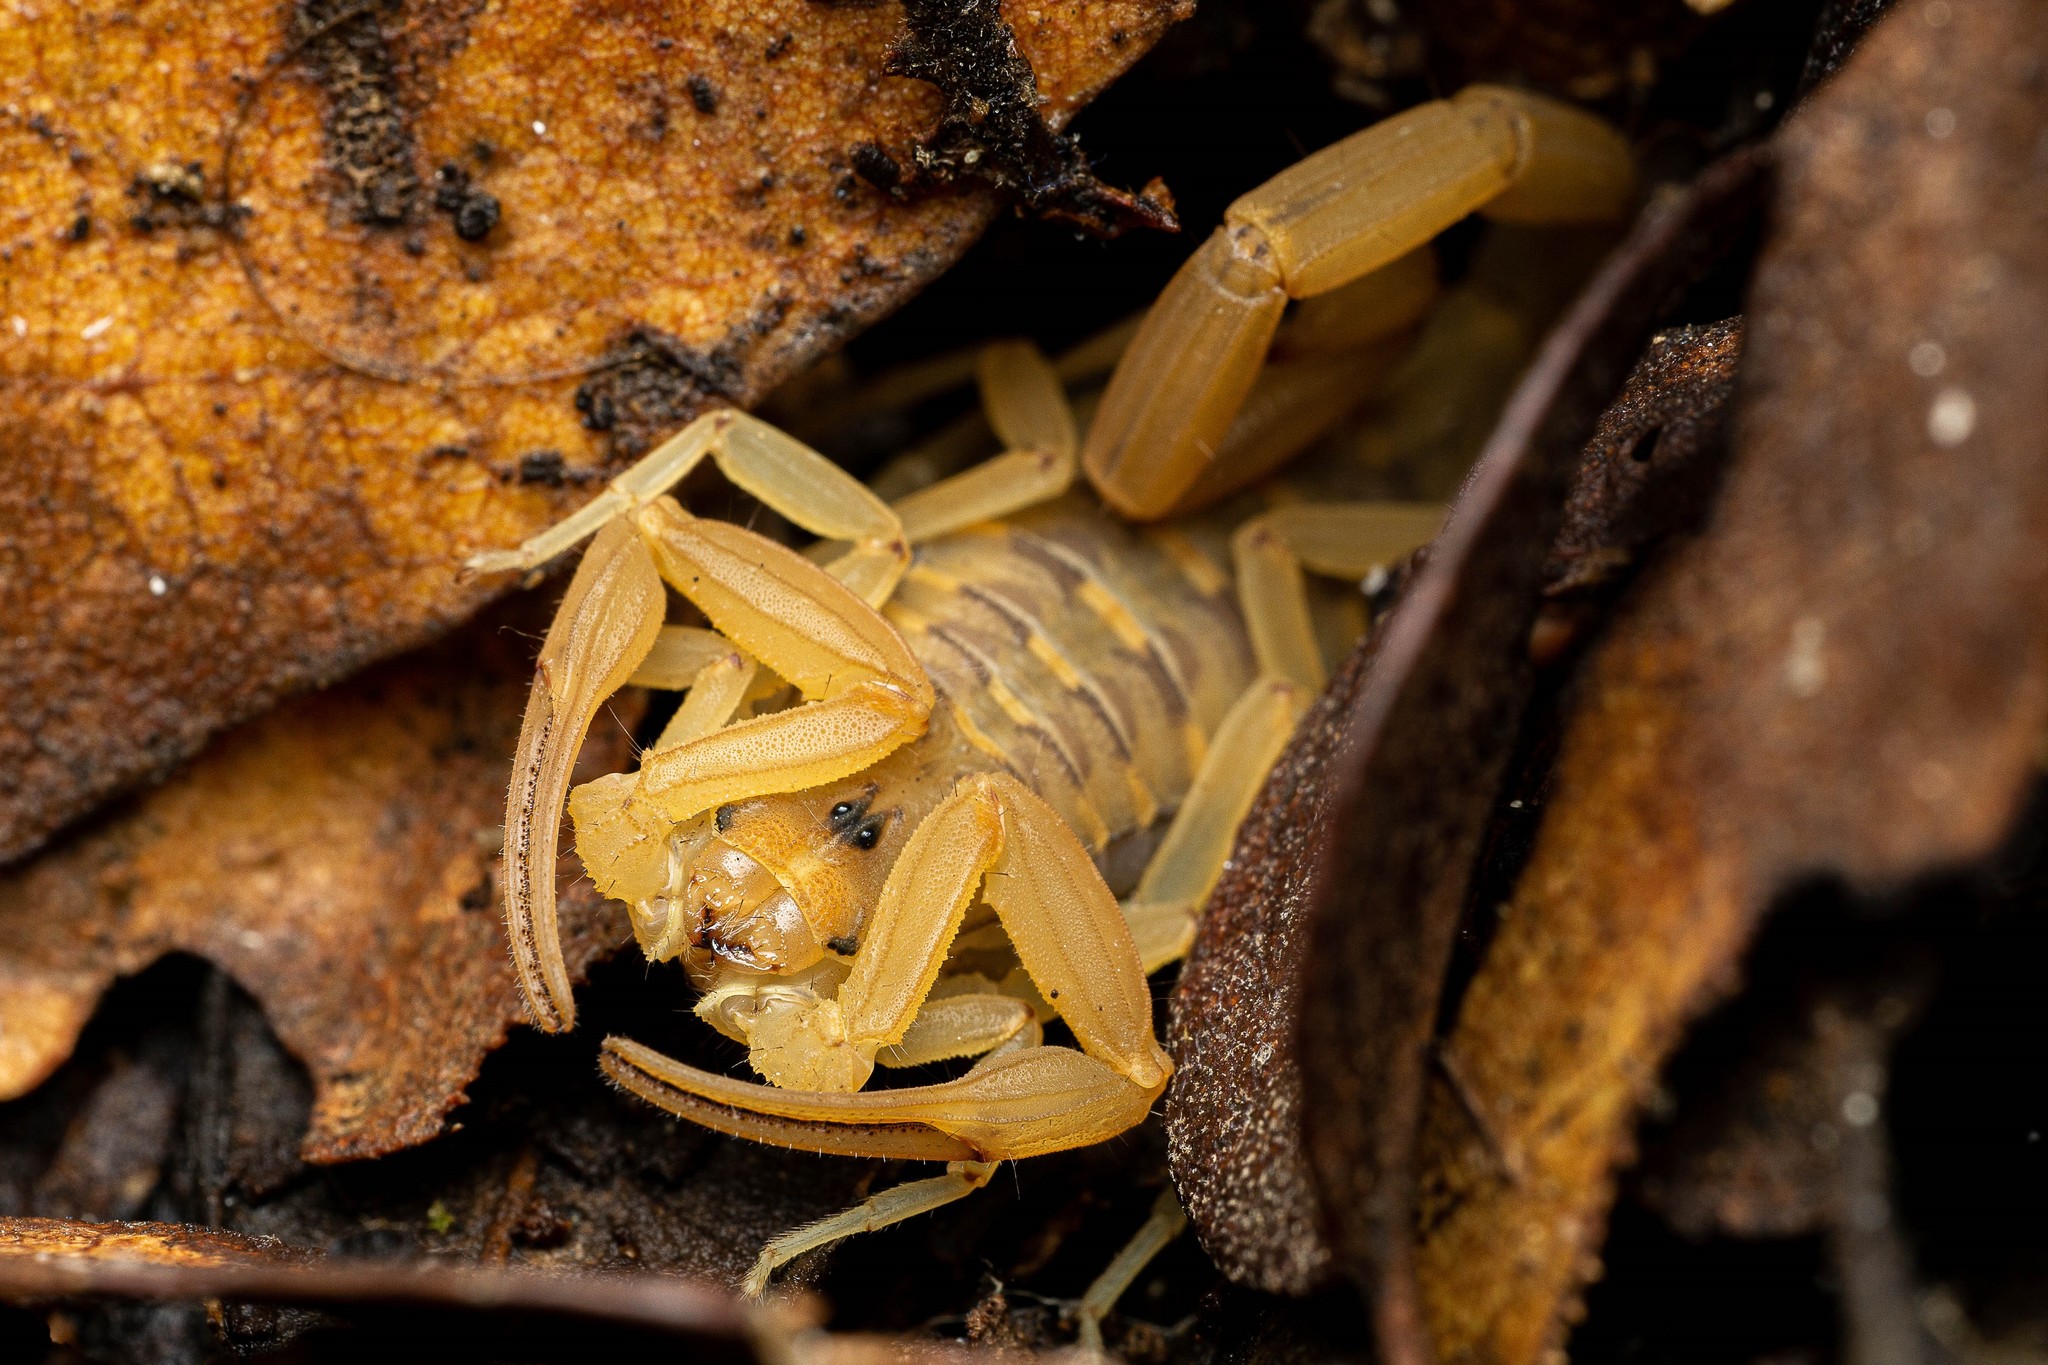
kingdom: Animalia
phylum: Arthropoda
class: Arachnida
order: Scorpiones
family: Buthidae
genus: Centruroides
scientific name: Centruroides sculpturatus
